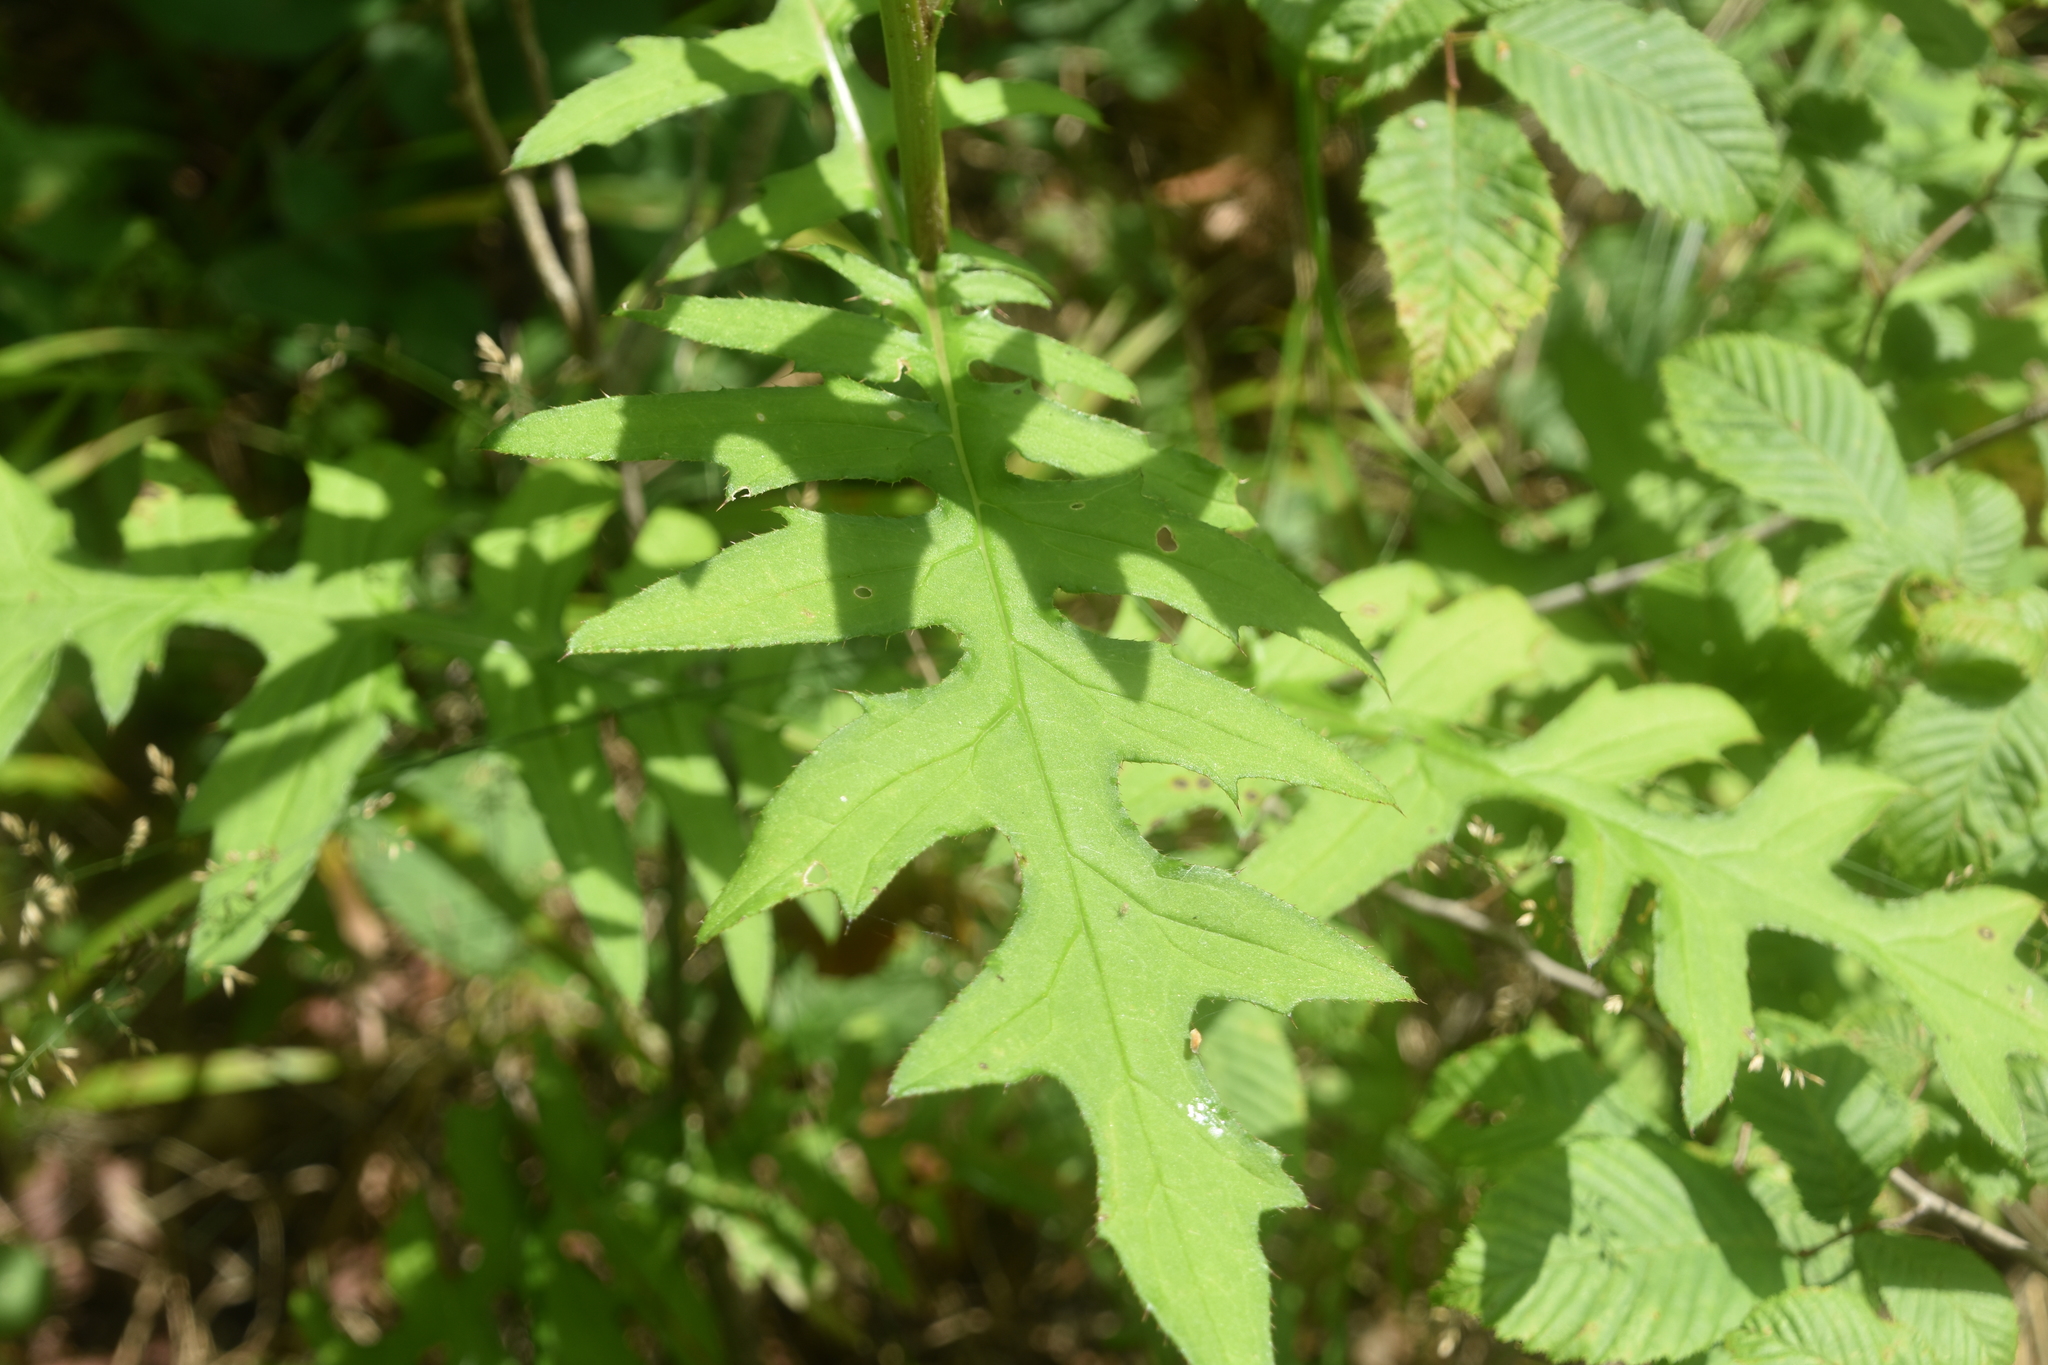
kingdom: Plantae
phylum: Tracheophyta
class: Magnoliopsida
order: Asterales
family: Asteraceae
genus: Cirsium
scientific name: Cirsium muticum
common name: Dunce-nettle
